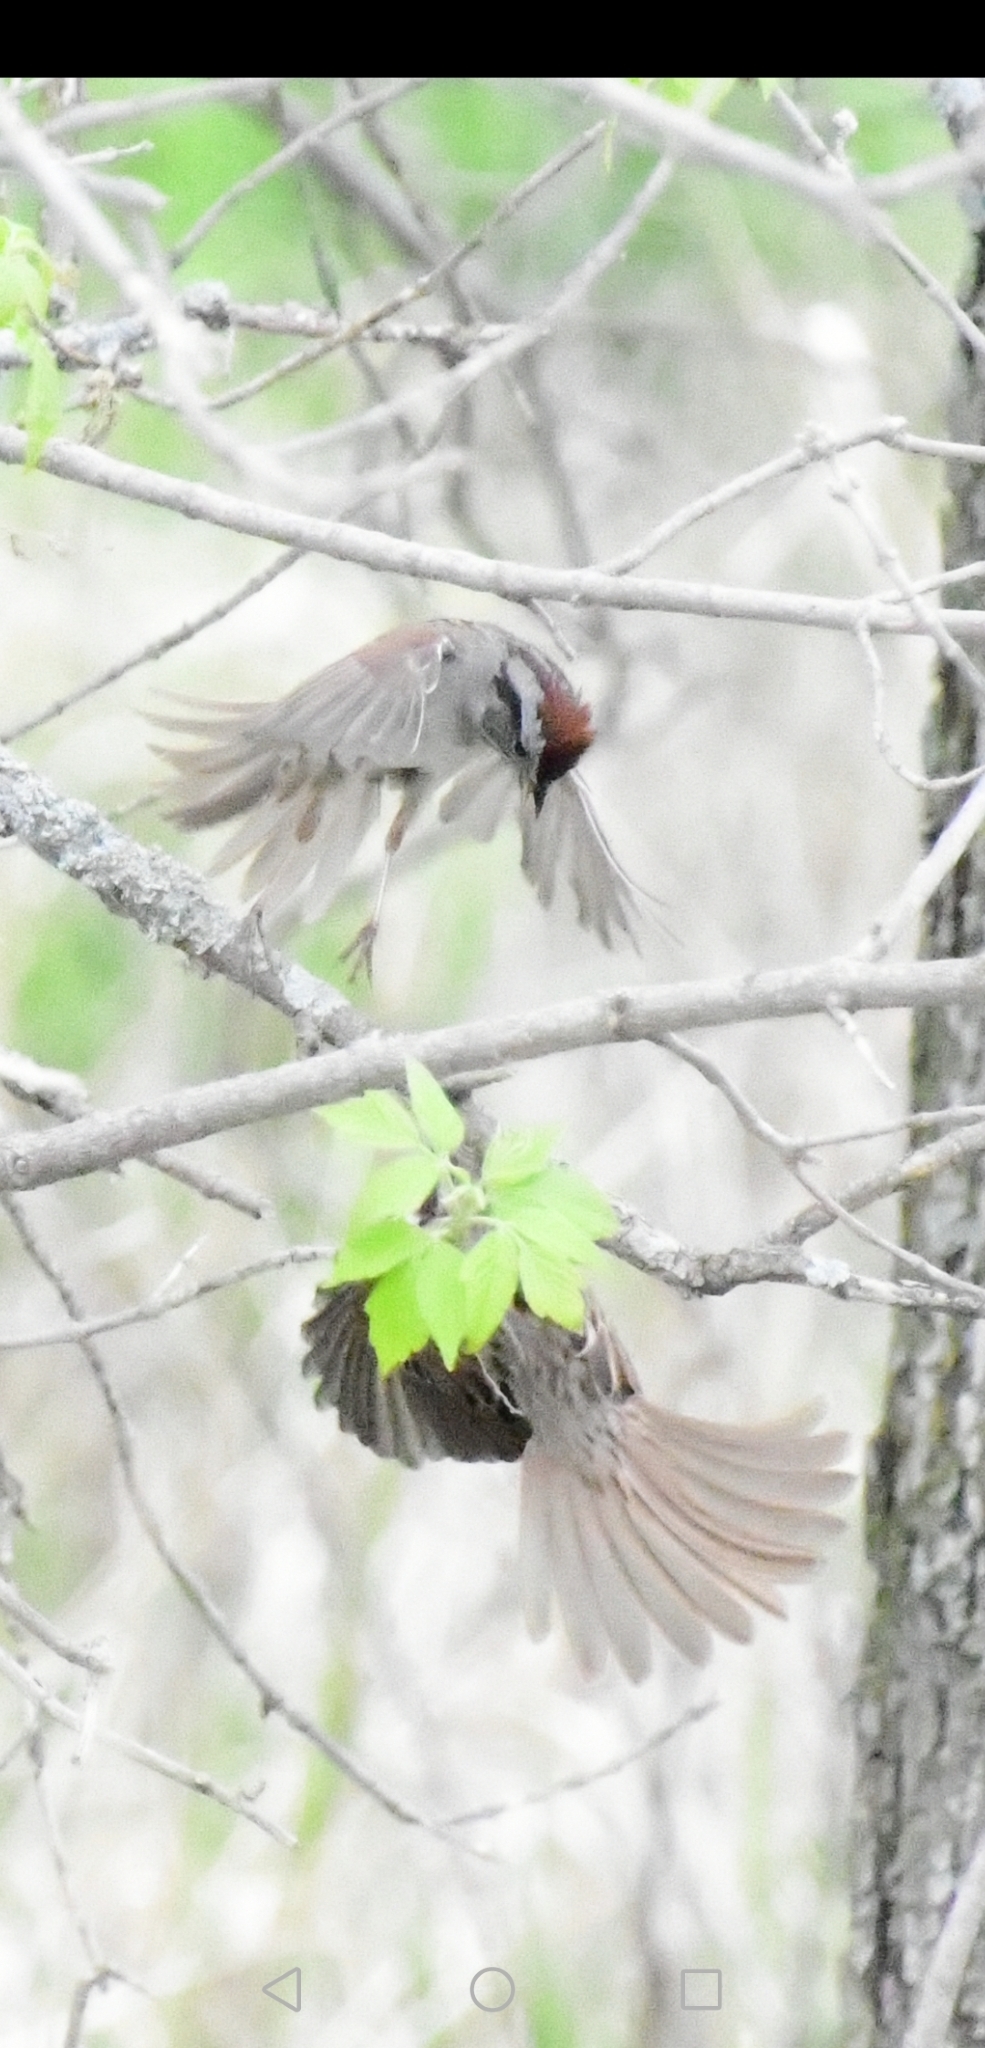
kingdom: Animalia
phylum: Chordata
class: Aves
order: Passeriformes
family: Passerellidae
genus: Spizella
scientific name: Spizella passerina
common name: Chipping sparrow
